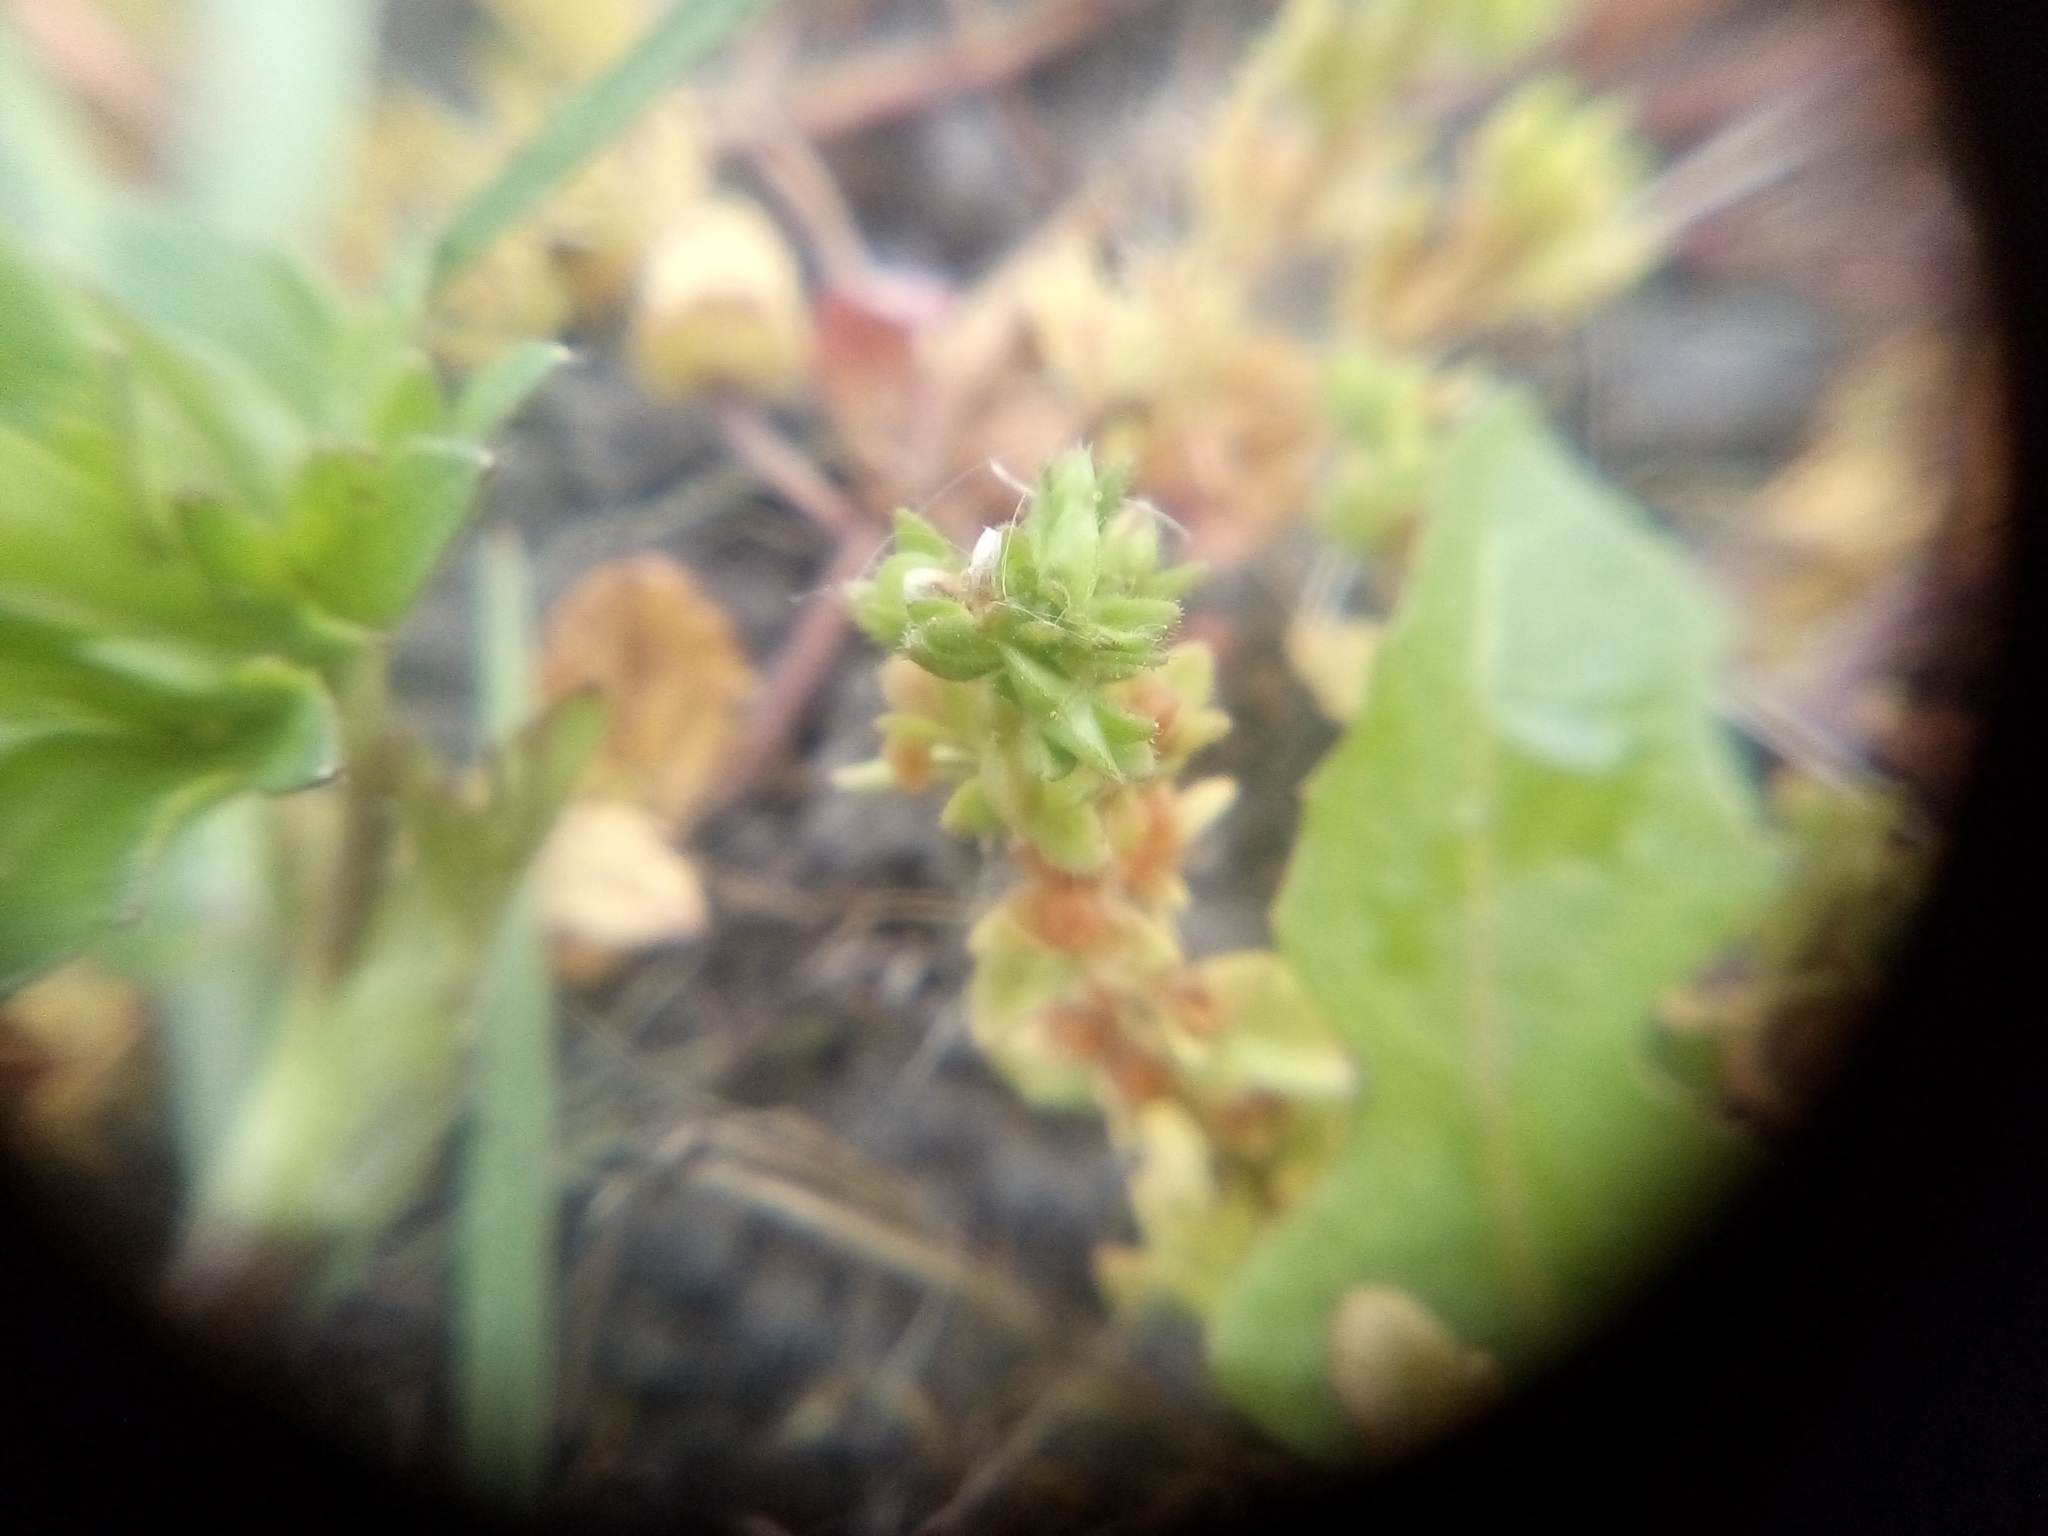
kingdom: Plantae
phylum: Tracheophyta
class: Magnoliopsida
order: Lamiales
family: Plantaginaceae
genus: Veronica
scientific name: Veronica arvensis
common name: Corn speedwell
